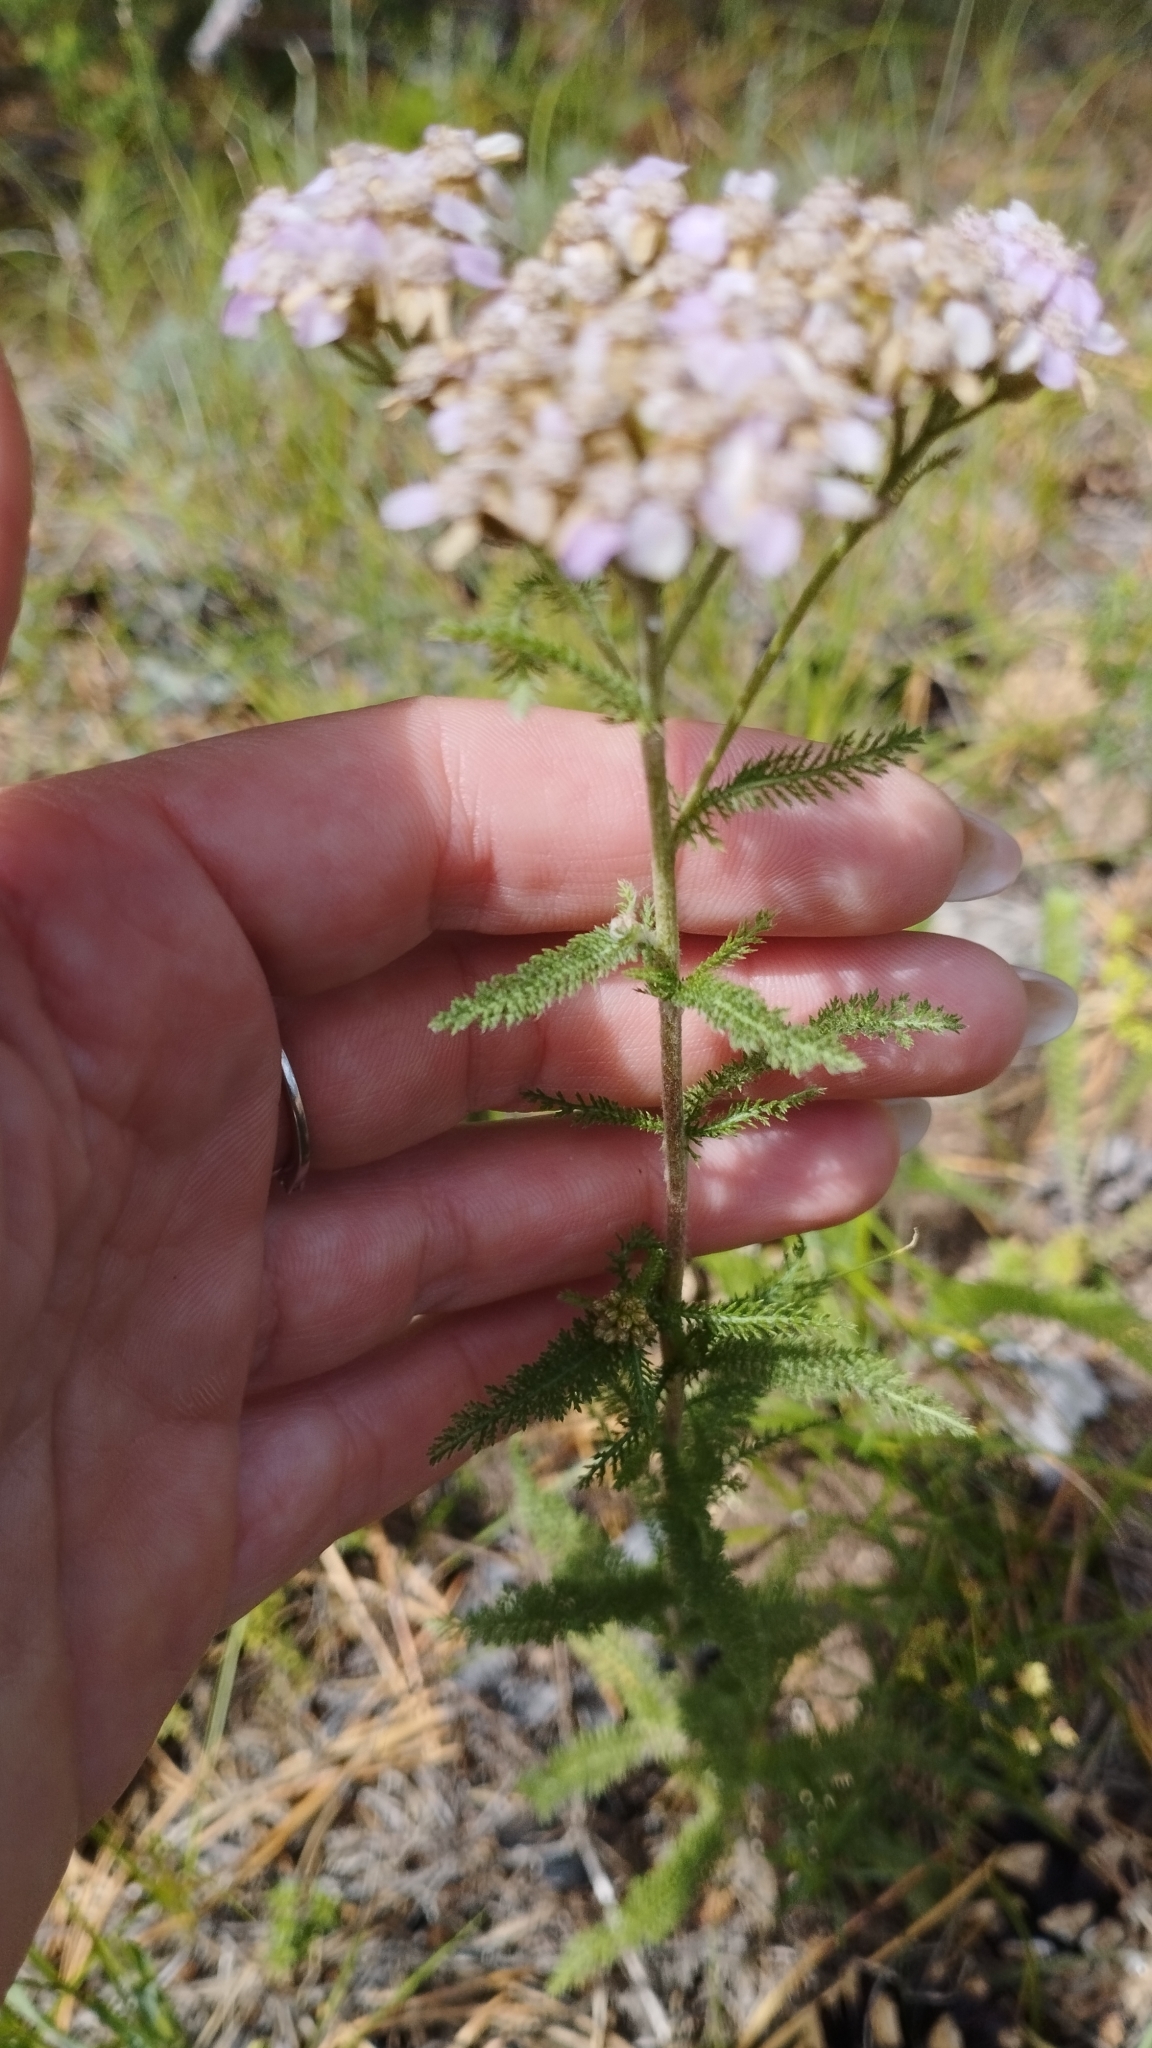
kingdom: Plantae
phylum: Tracheophyta
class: Magnoliopsida
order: Asterales
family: Asteraceae
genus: Achillea
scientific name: Achillea asiatica
